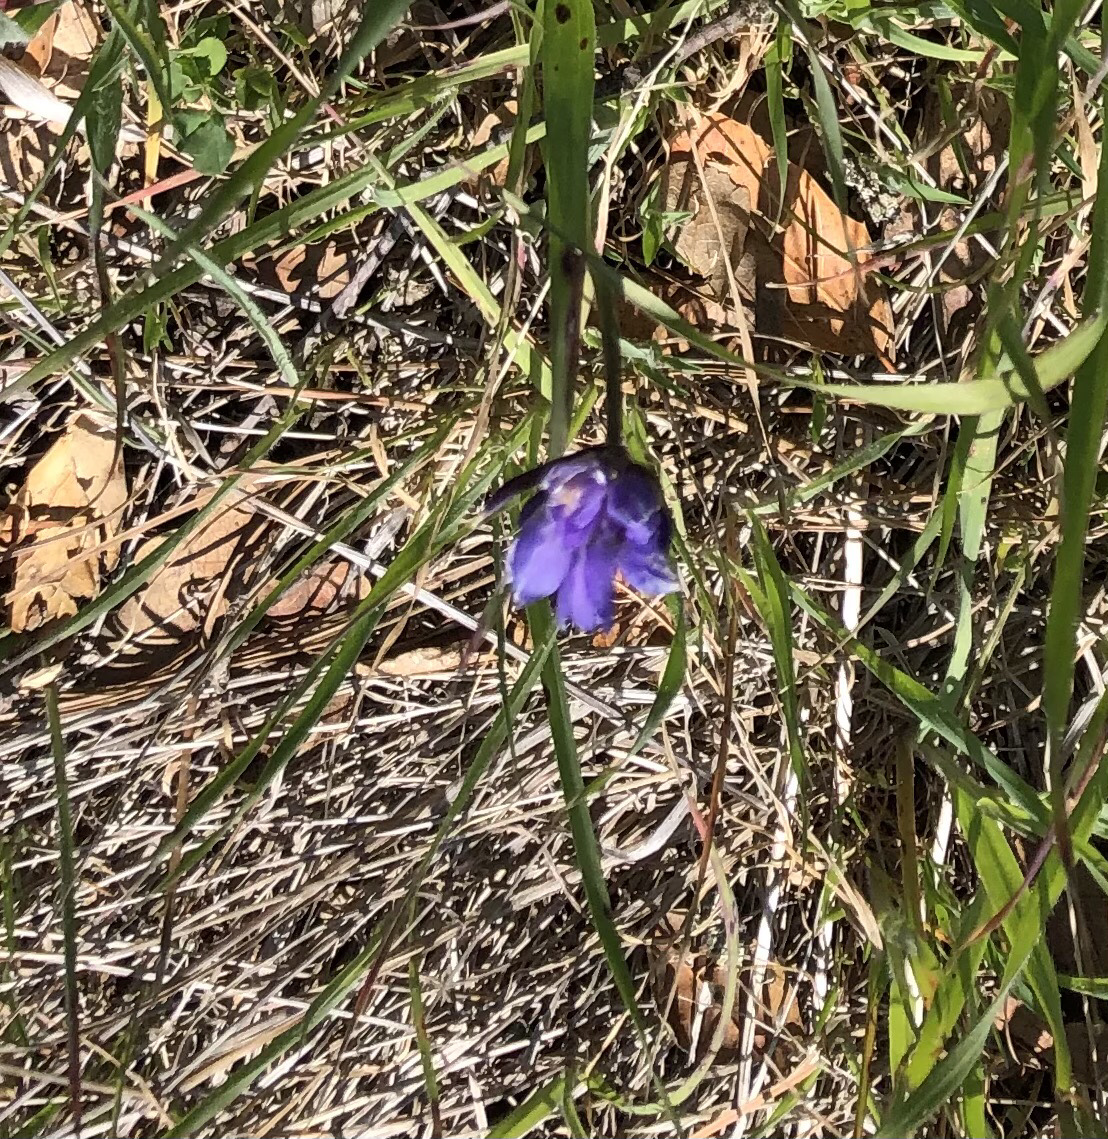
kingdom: Plantae
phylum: Tracheophyta
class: Liliopsida
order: Asparagales
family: Asparagaceae
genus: Dipterostemon
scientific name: Dipterostemon capitatus
